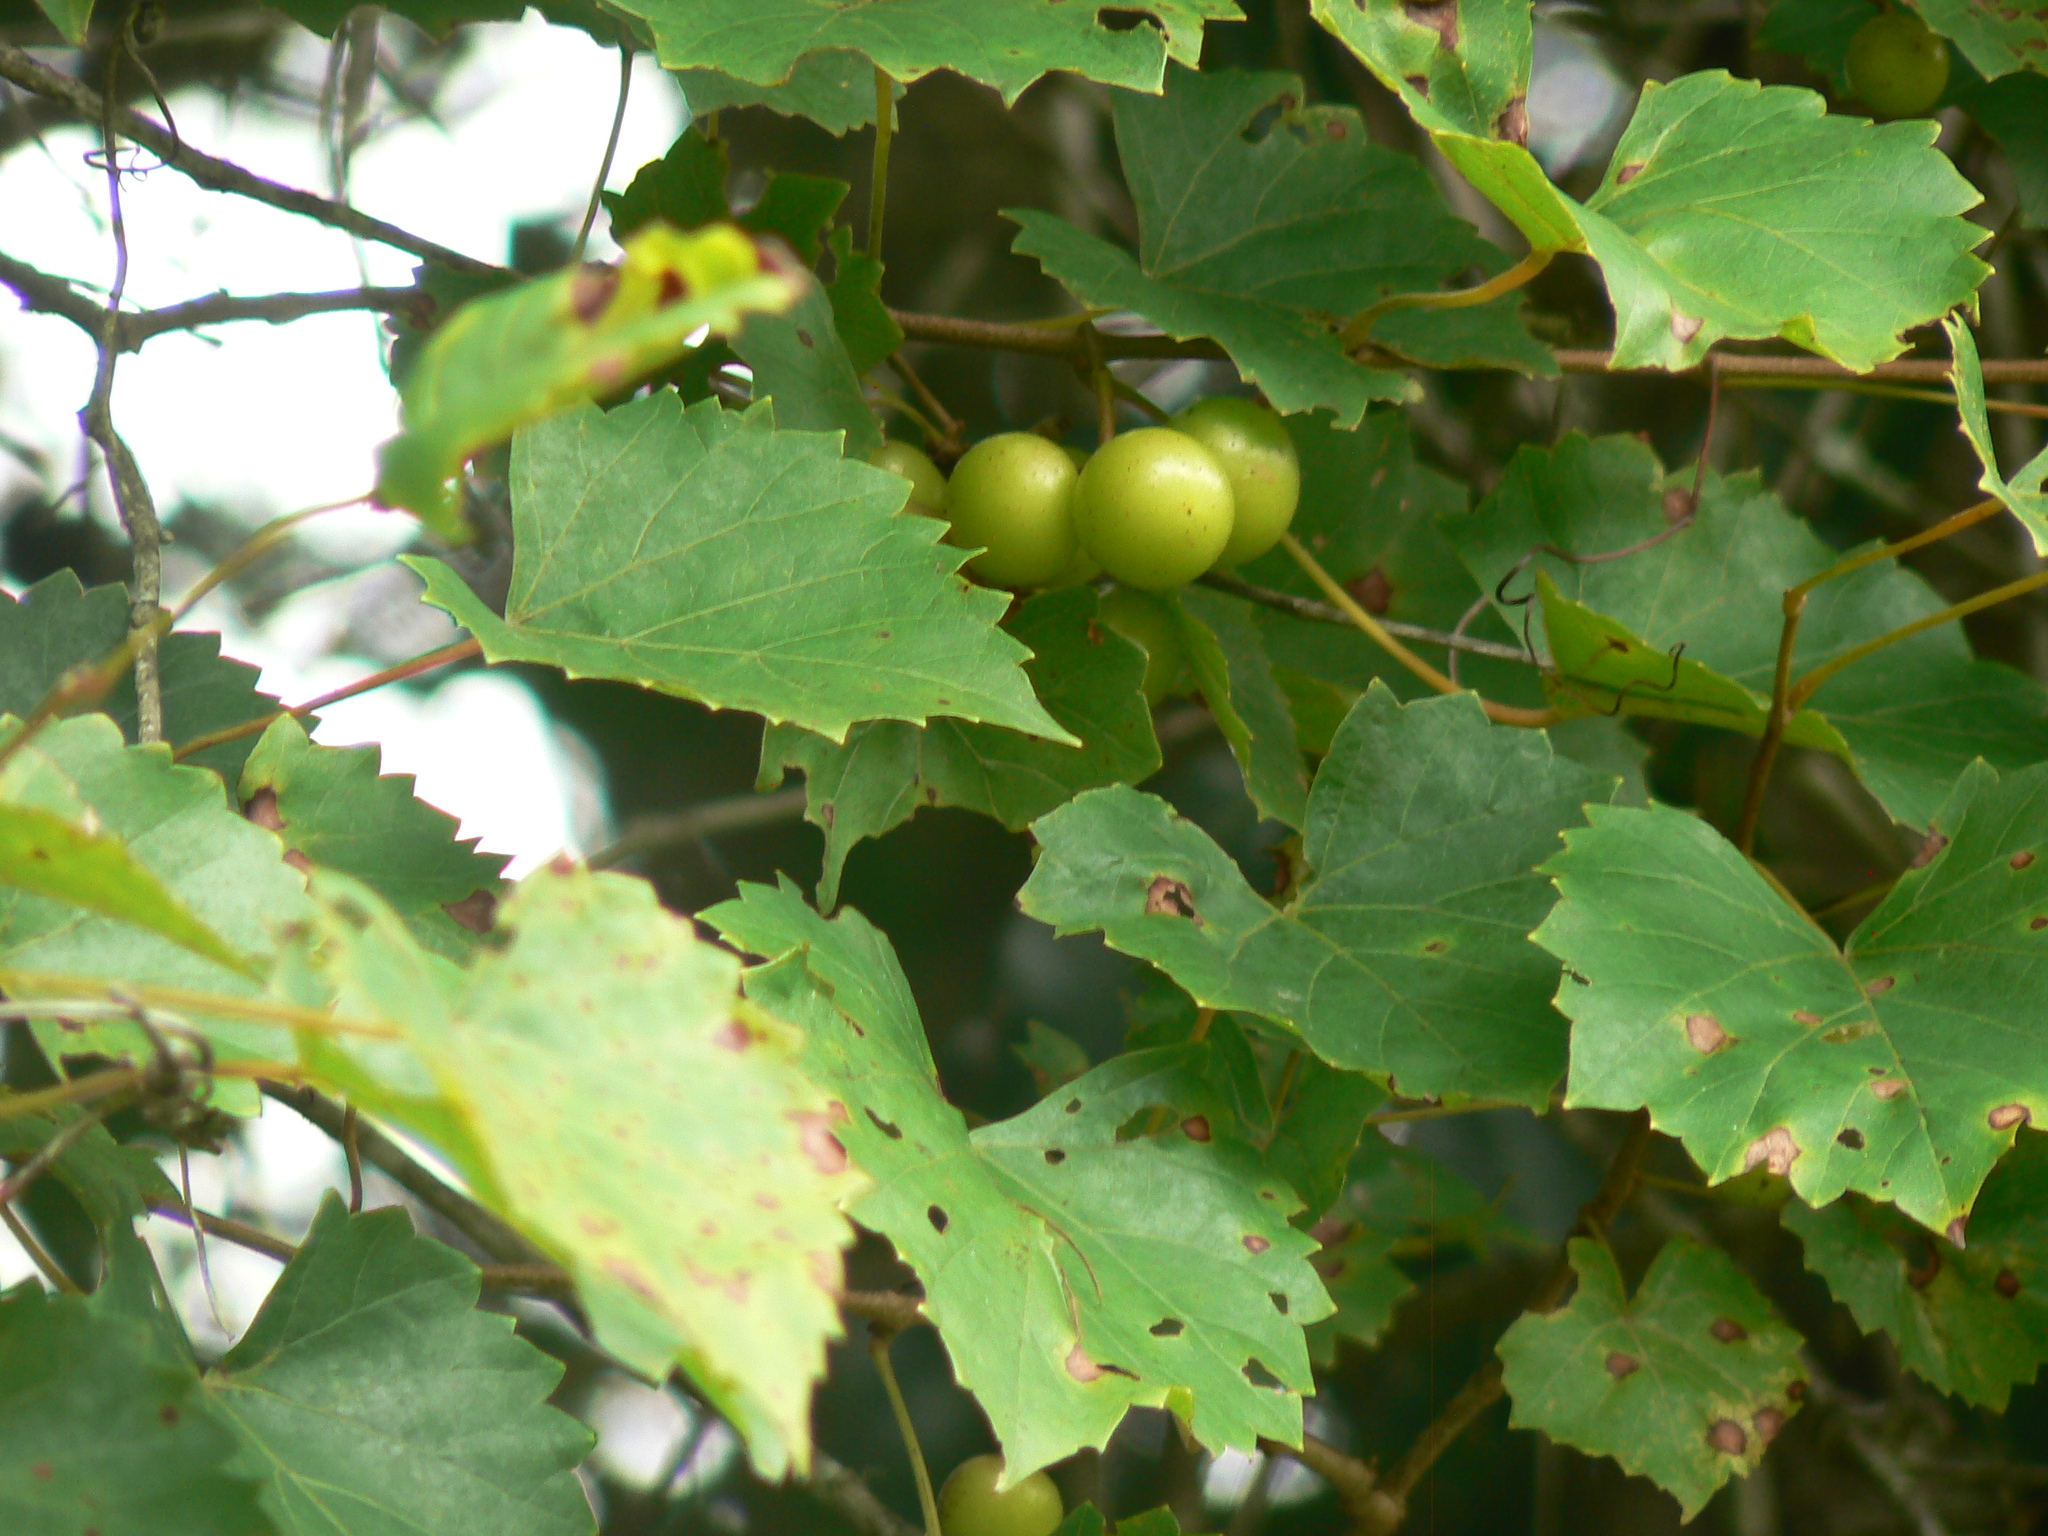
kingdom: Plantae
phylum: Tracheophyta
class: Magnoliopsida
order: Vitales
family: Vitaceae
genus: Vitis
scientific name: Vitis rotundifolia
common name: Muscadine grape
